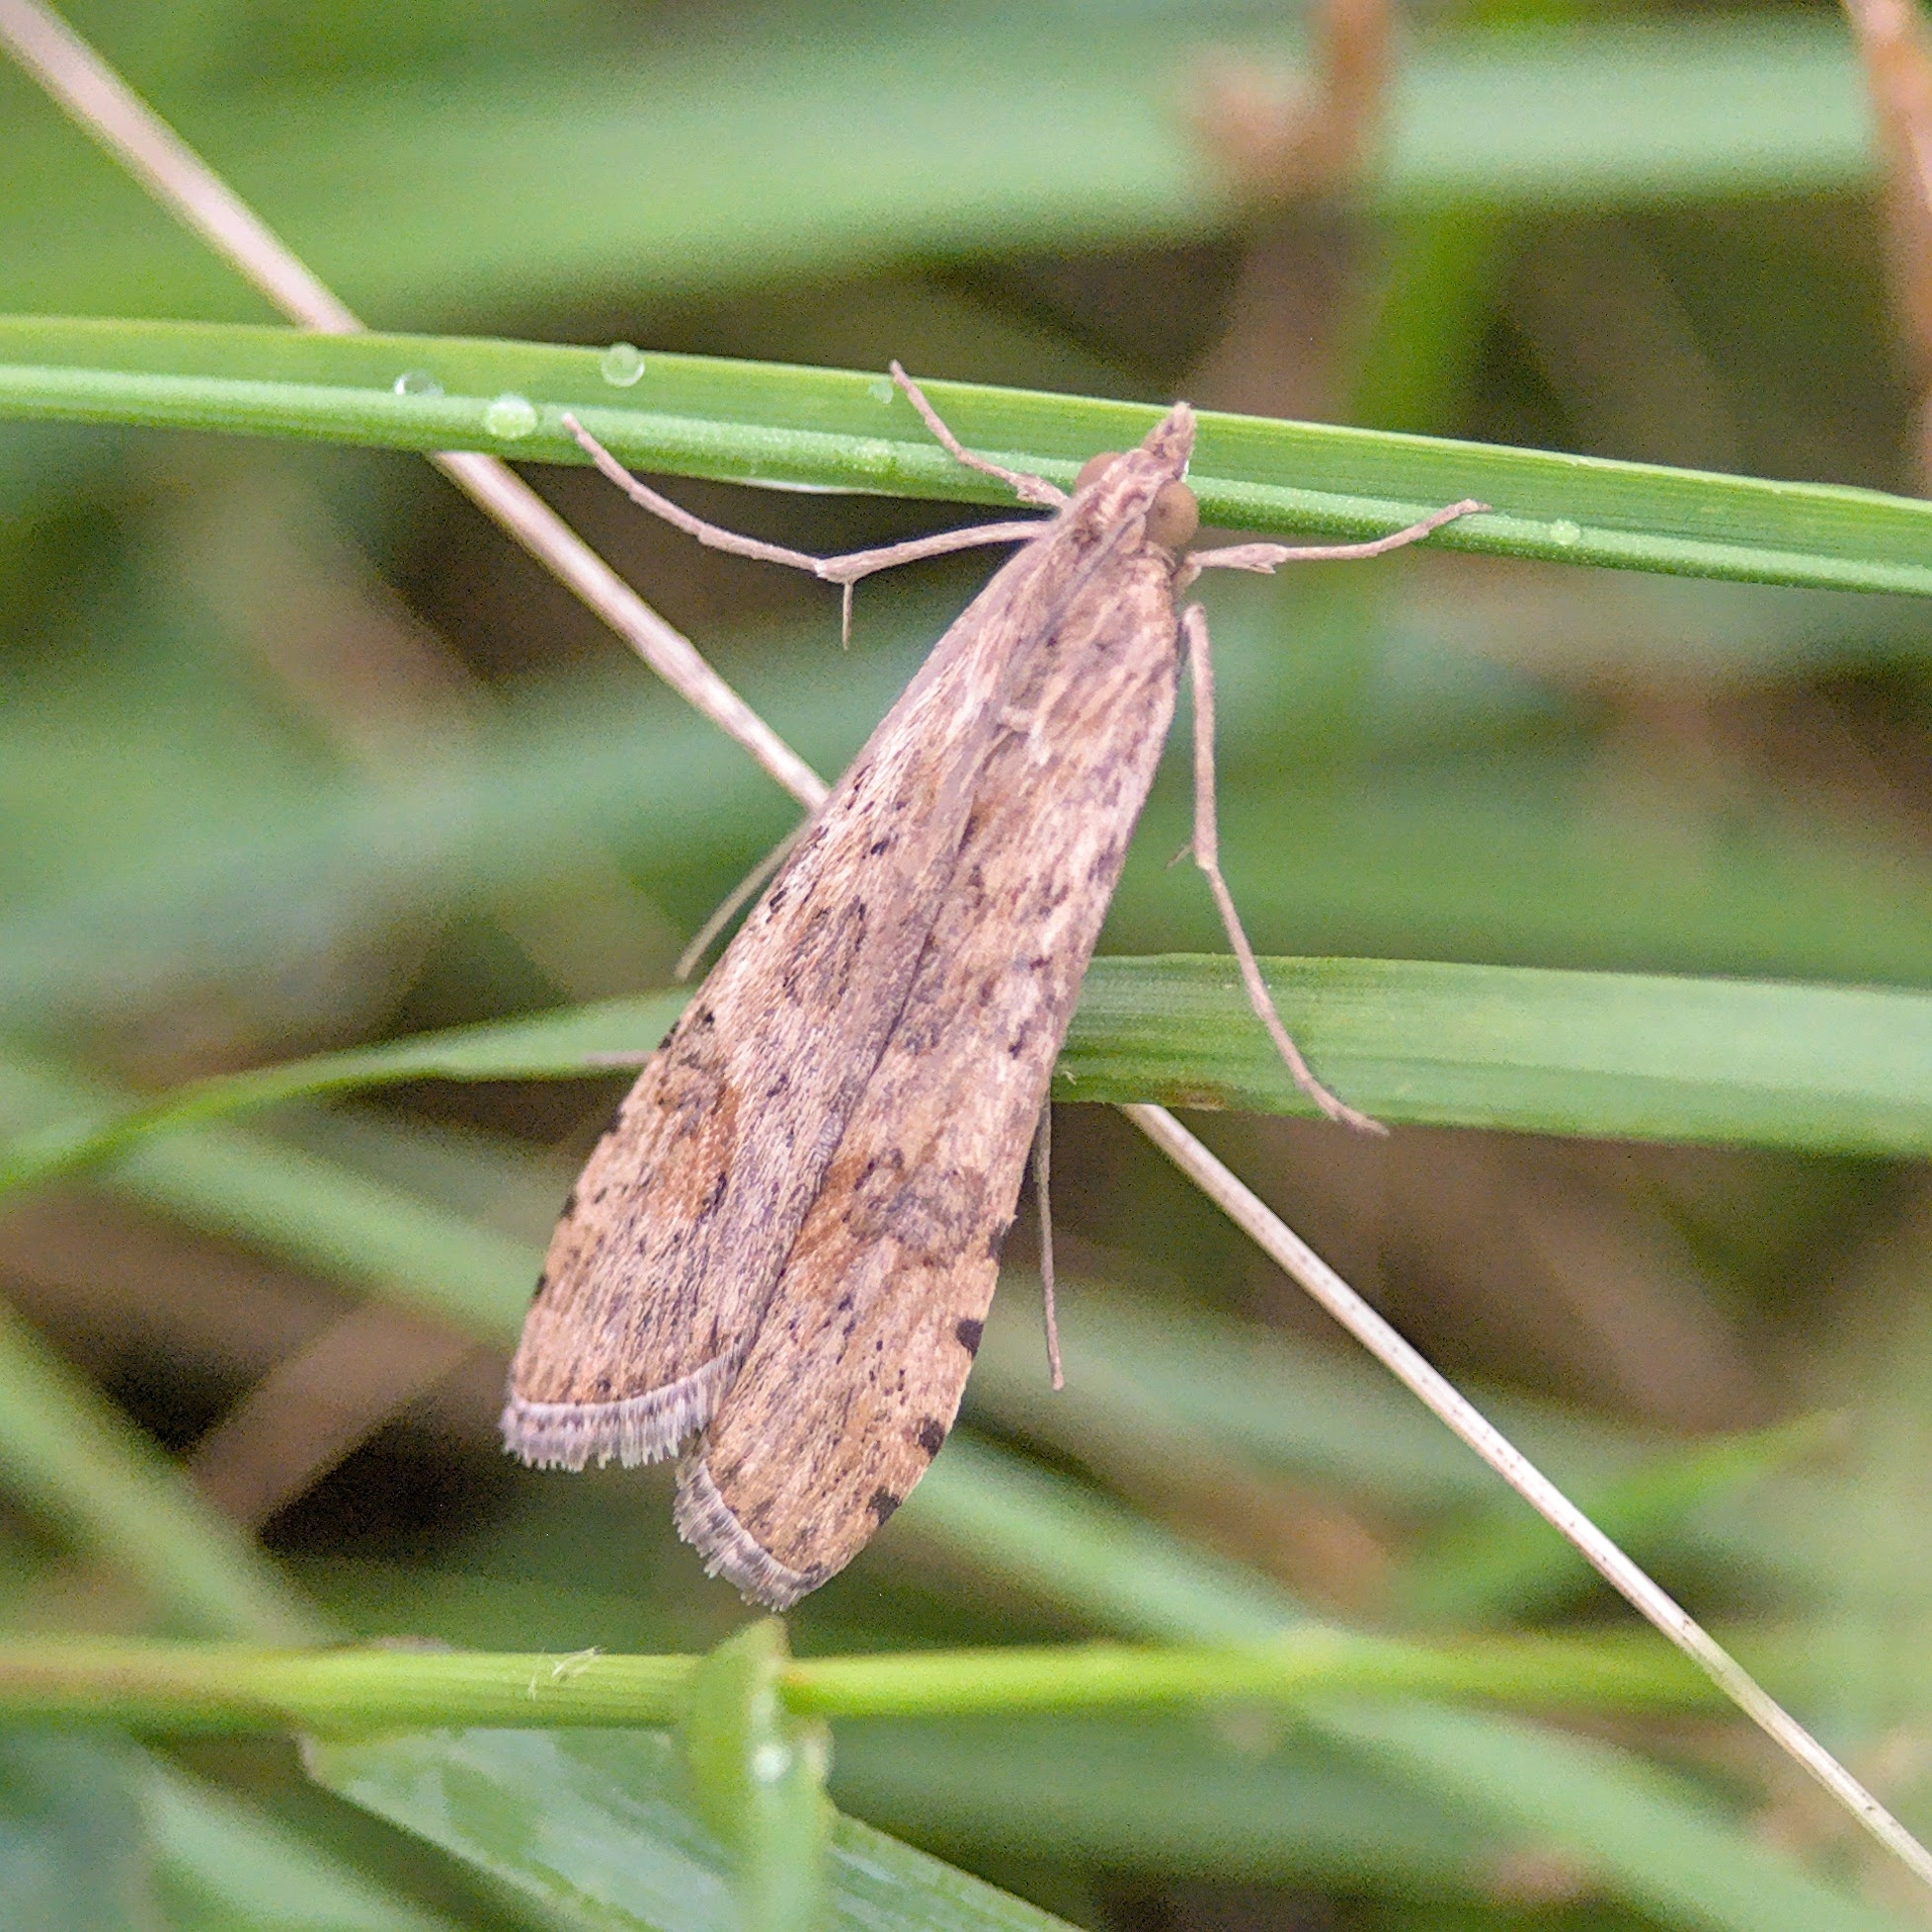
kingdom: Animalia
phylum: Arthropoda
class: Insecta
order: Lepidoptera
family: Crambidae
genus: Nomophila
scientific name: Nomophila noctuella
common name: Rush veneer
